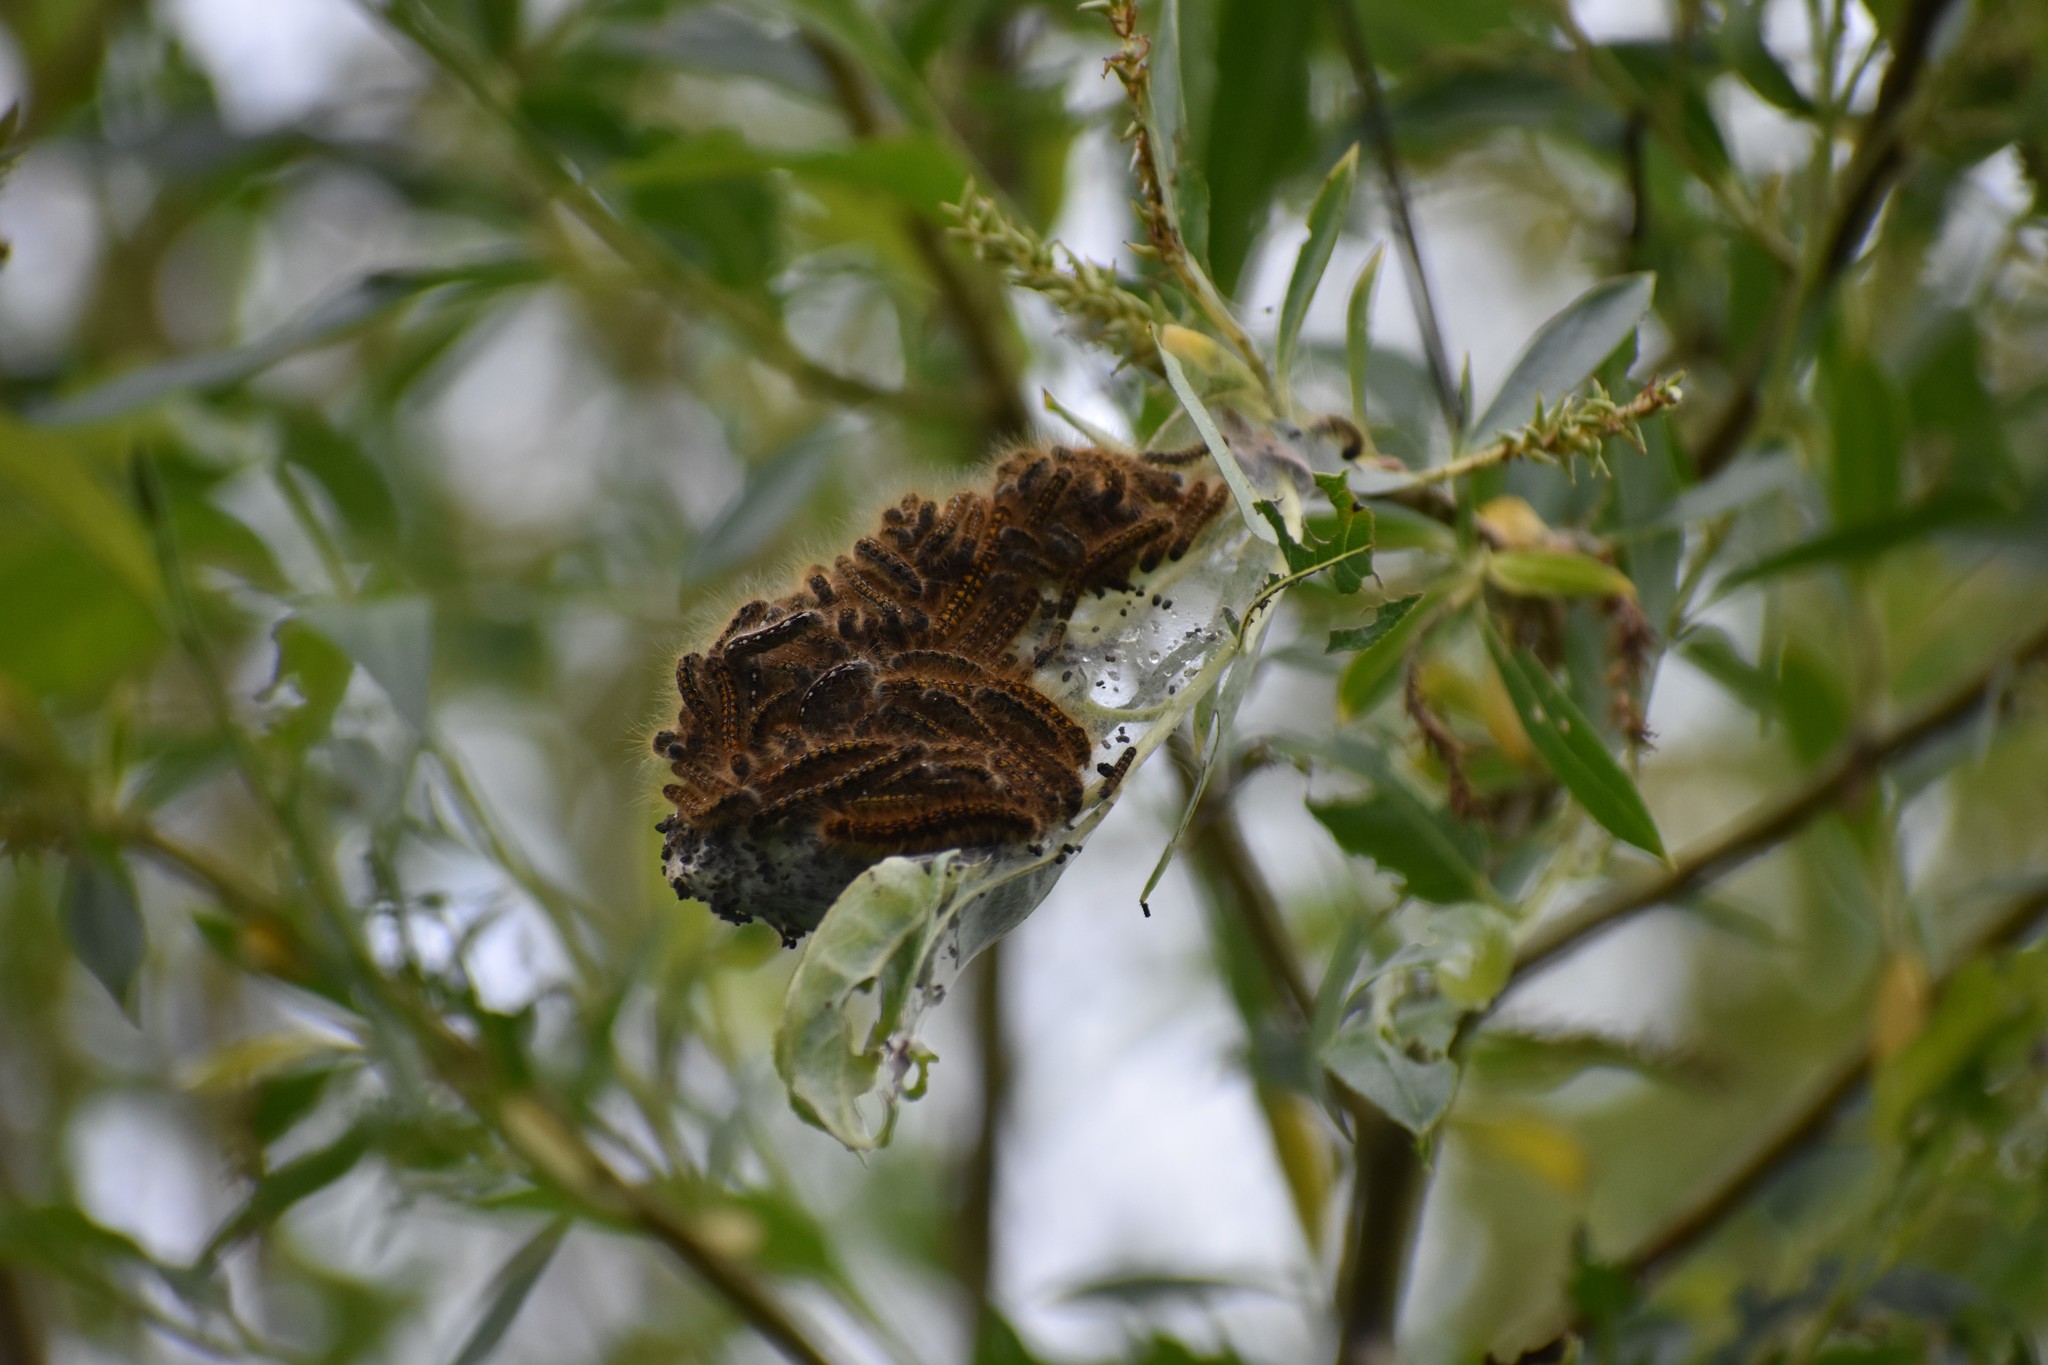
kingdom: Animalia
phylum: Arthropoda
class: Insecta
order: Lepidoptera
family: Lasiocampidae
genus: Malacosoma
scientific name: Malacosoma californica
